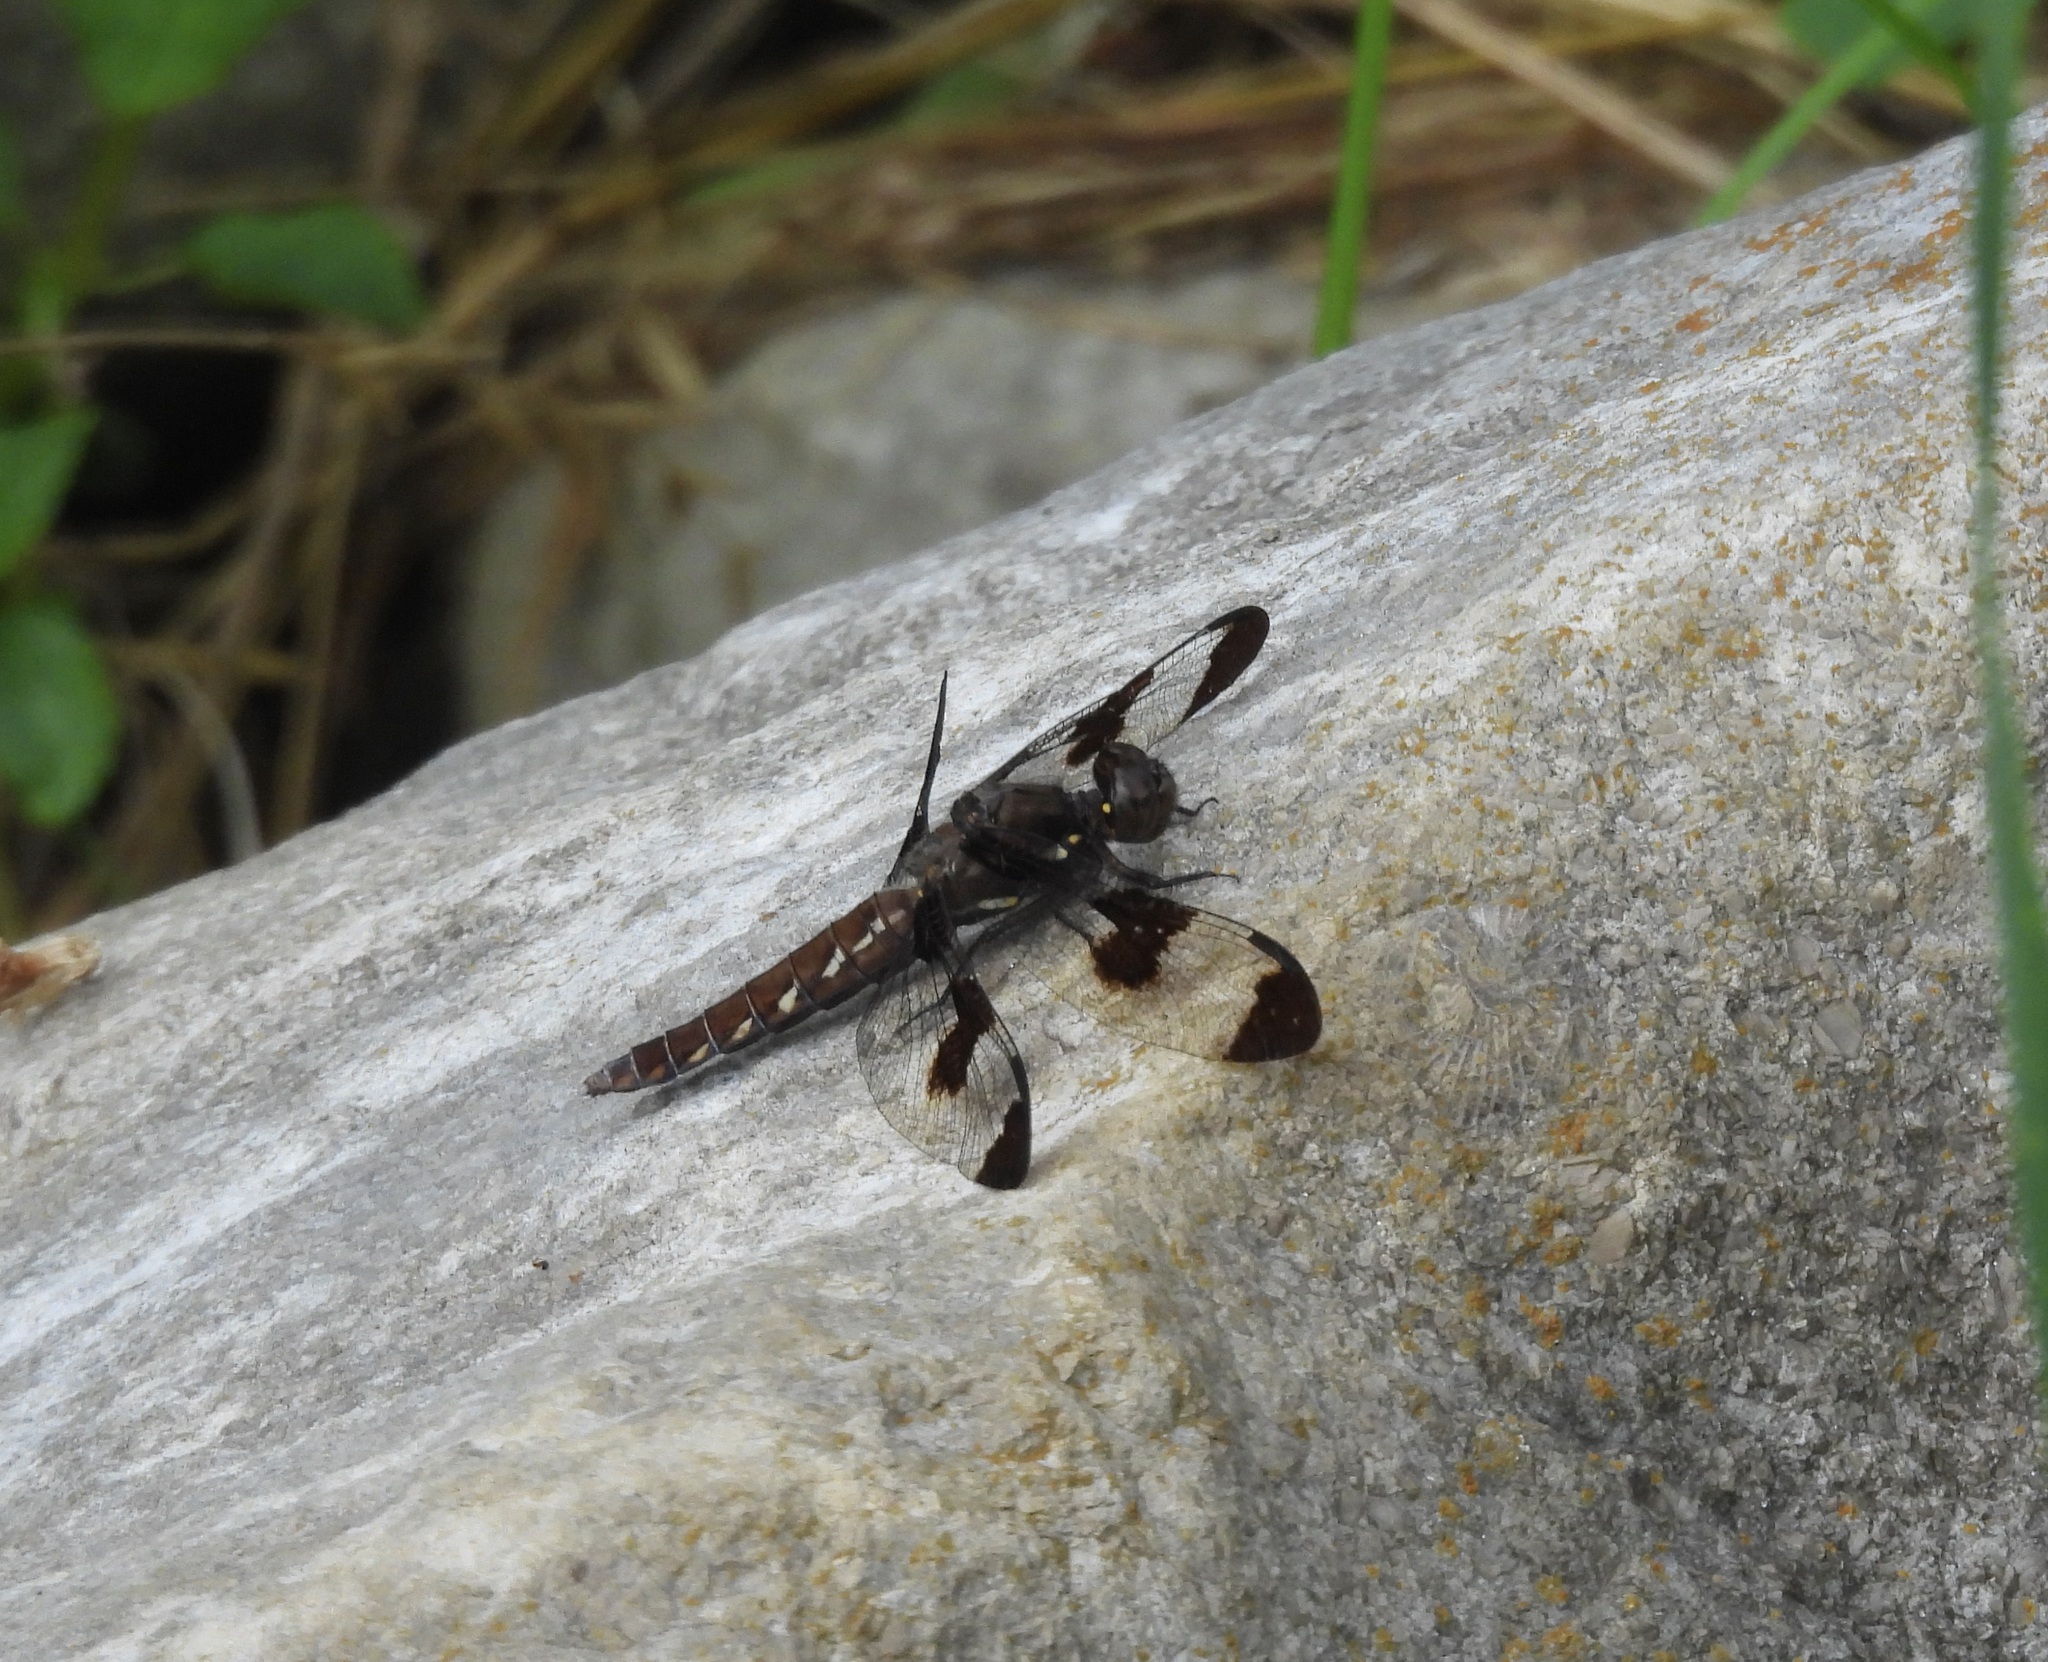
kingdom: Animalia
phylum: Arthropoda
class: Insecta
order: Odonata
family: Libellulidae
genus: Plathemis
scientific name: Plathemis lydia
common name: Common whitetail
